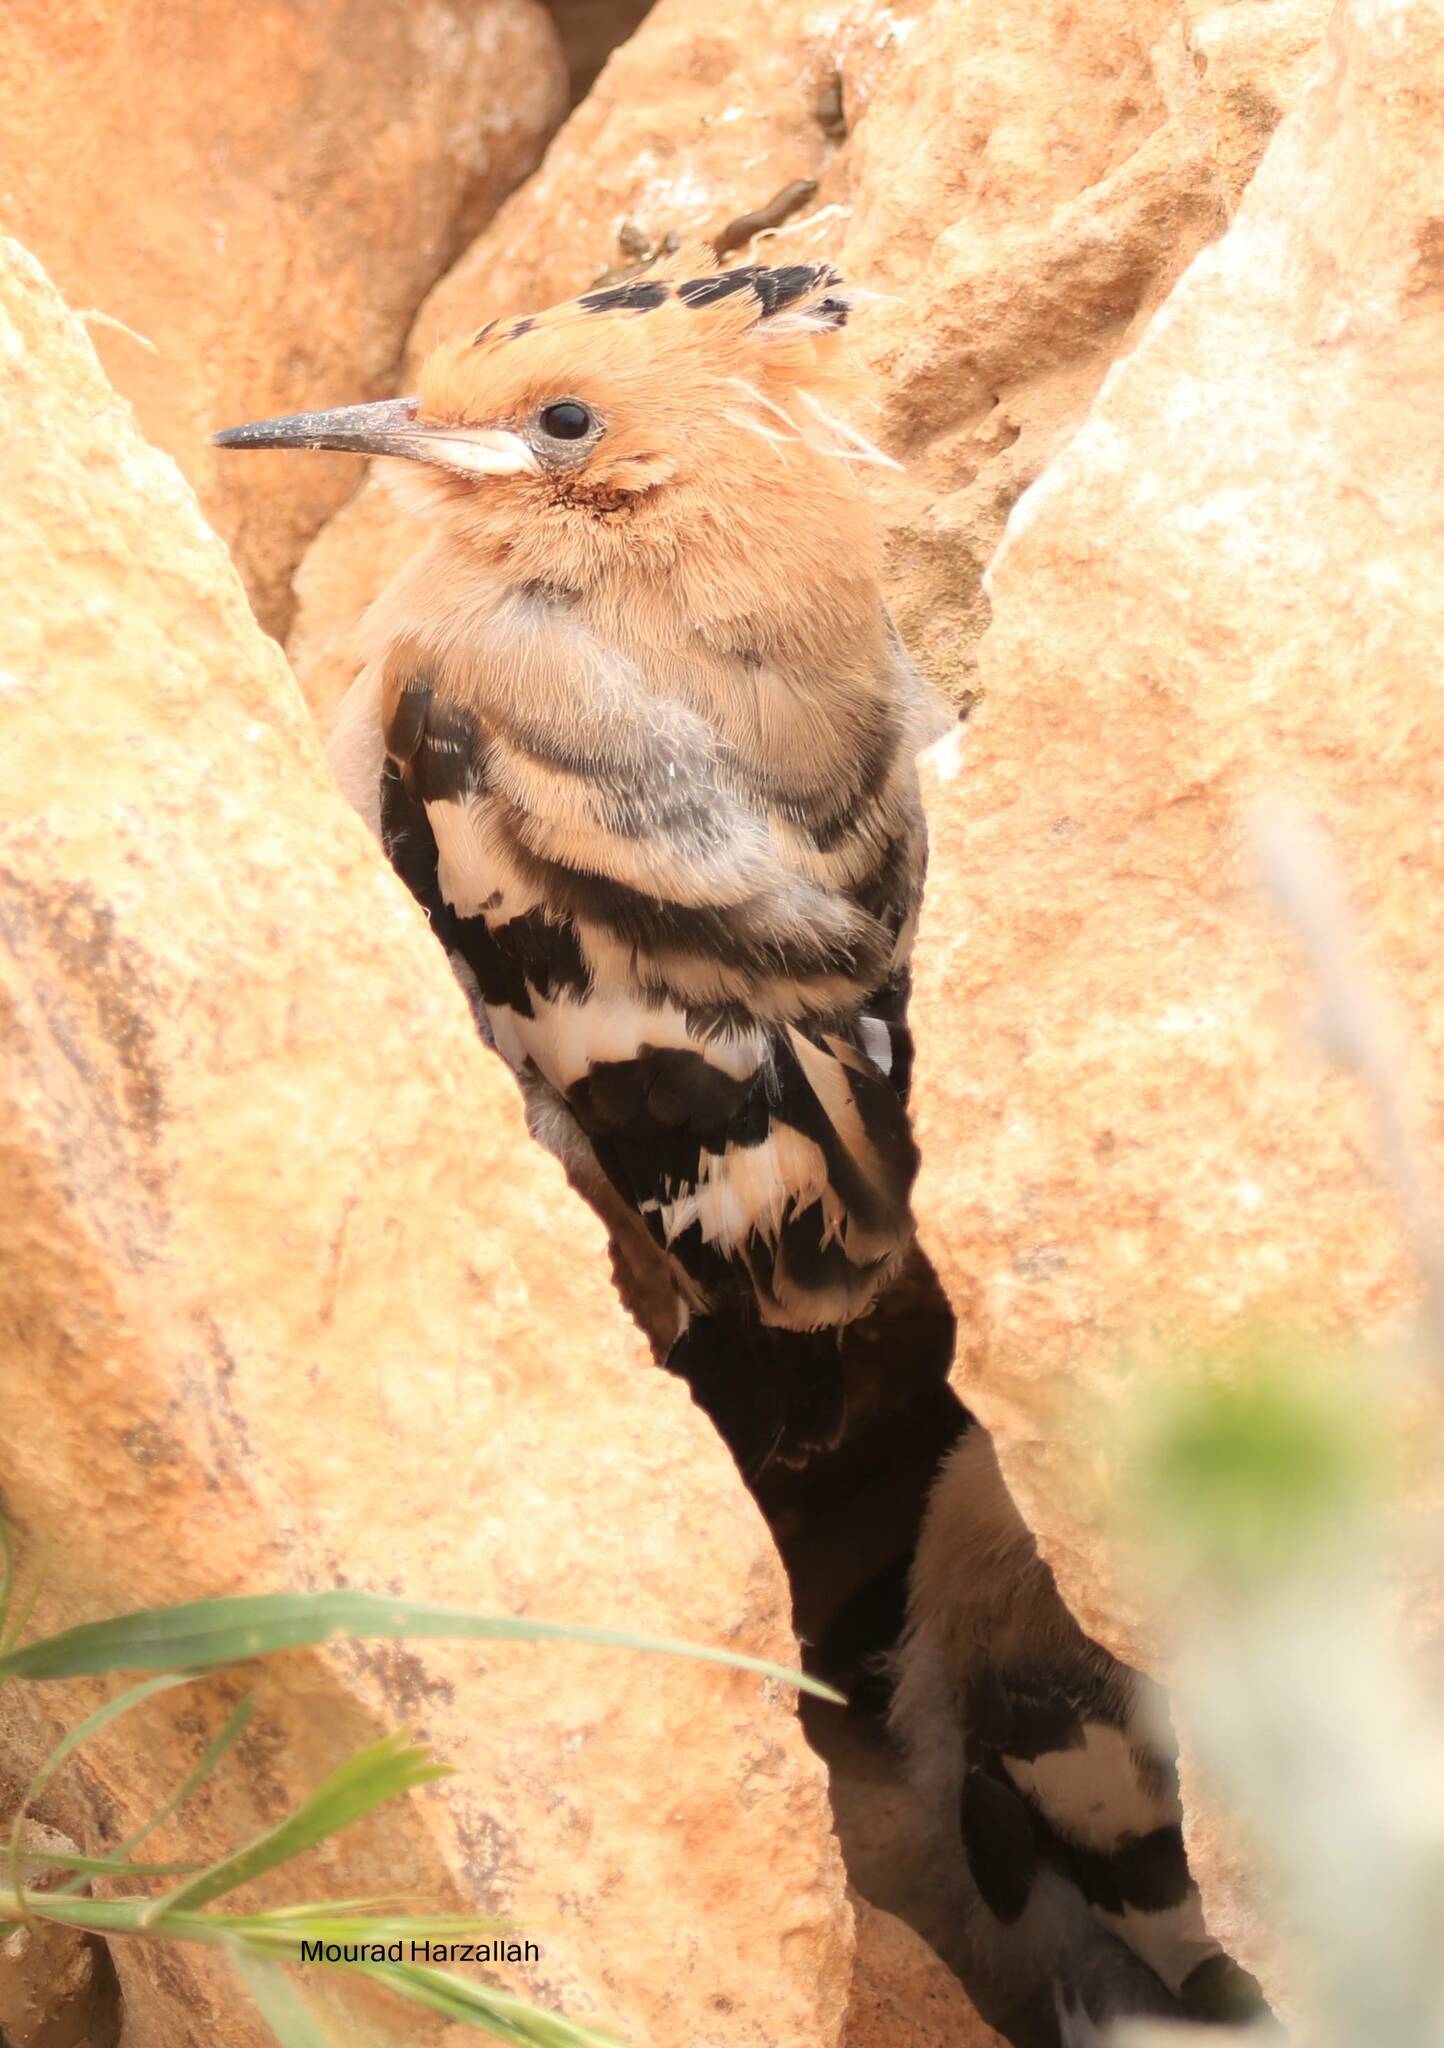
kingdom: Animalia
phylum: Chordata
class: Aves
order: Bucerotiformes
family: Upupidae
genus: Upupa
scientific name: Upupa epops
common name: Eurasian hoopoe
